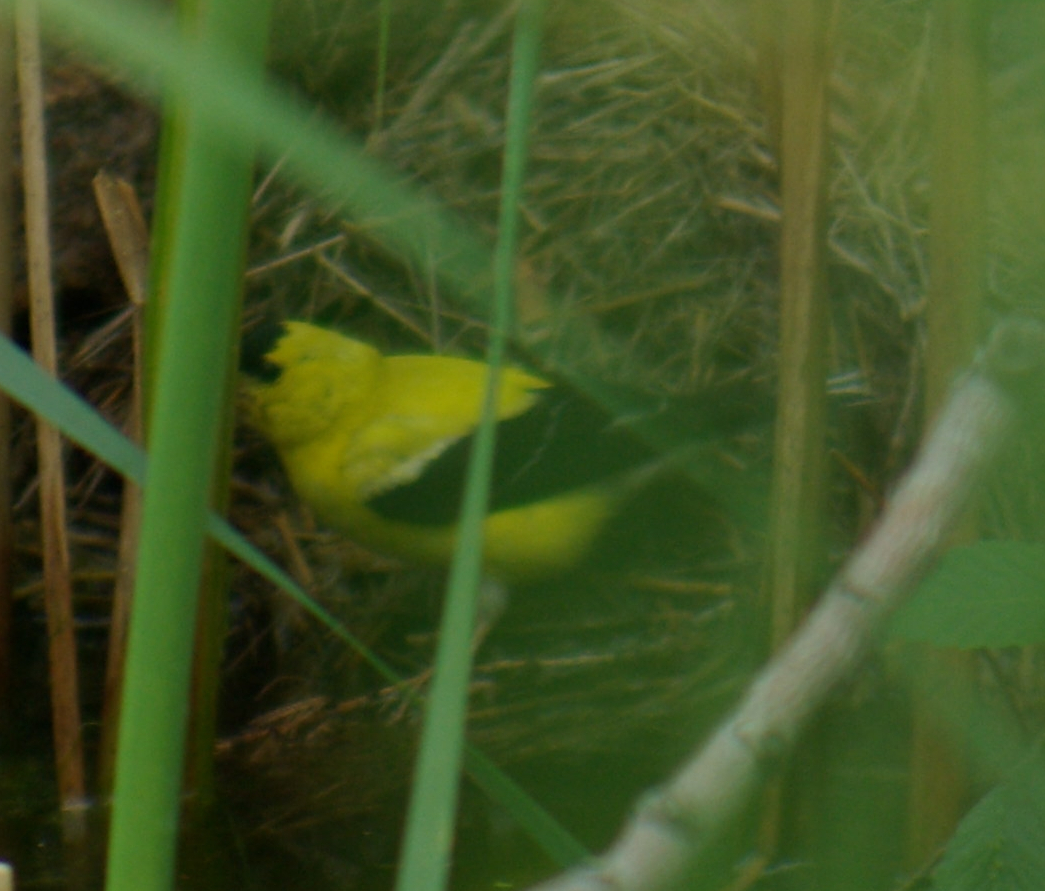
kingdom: Animalia
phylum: Chordata
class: Aves
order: Passeriformes
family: Fringillidae
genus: Spinus
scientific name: Spinus tristis
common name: American goldfinch
